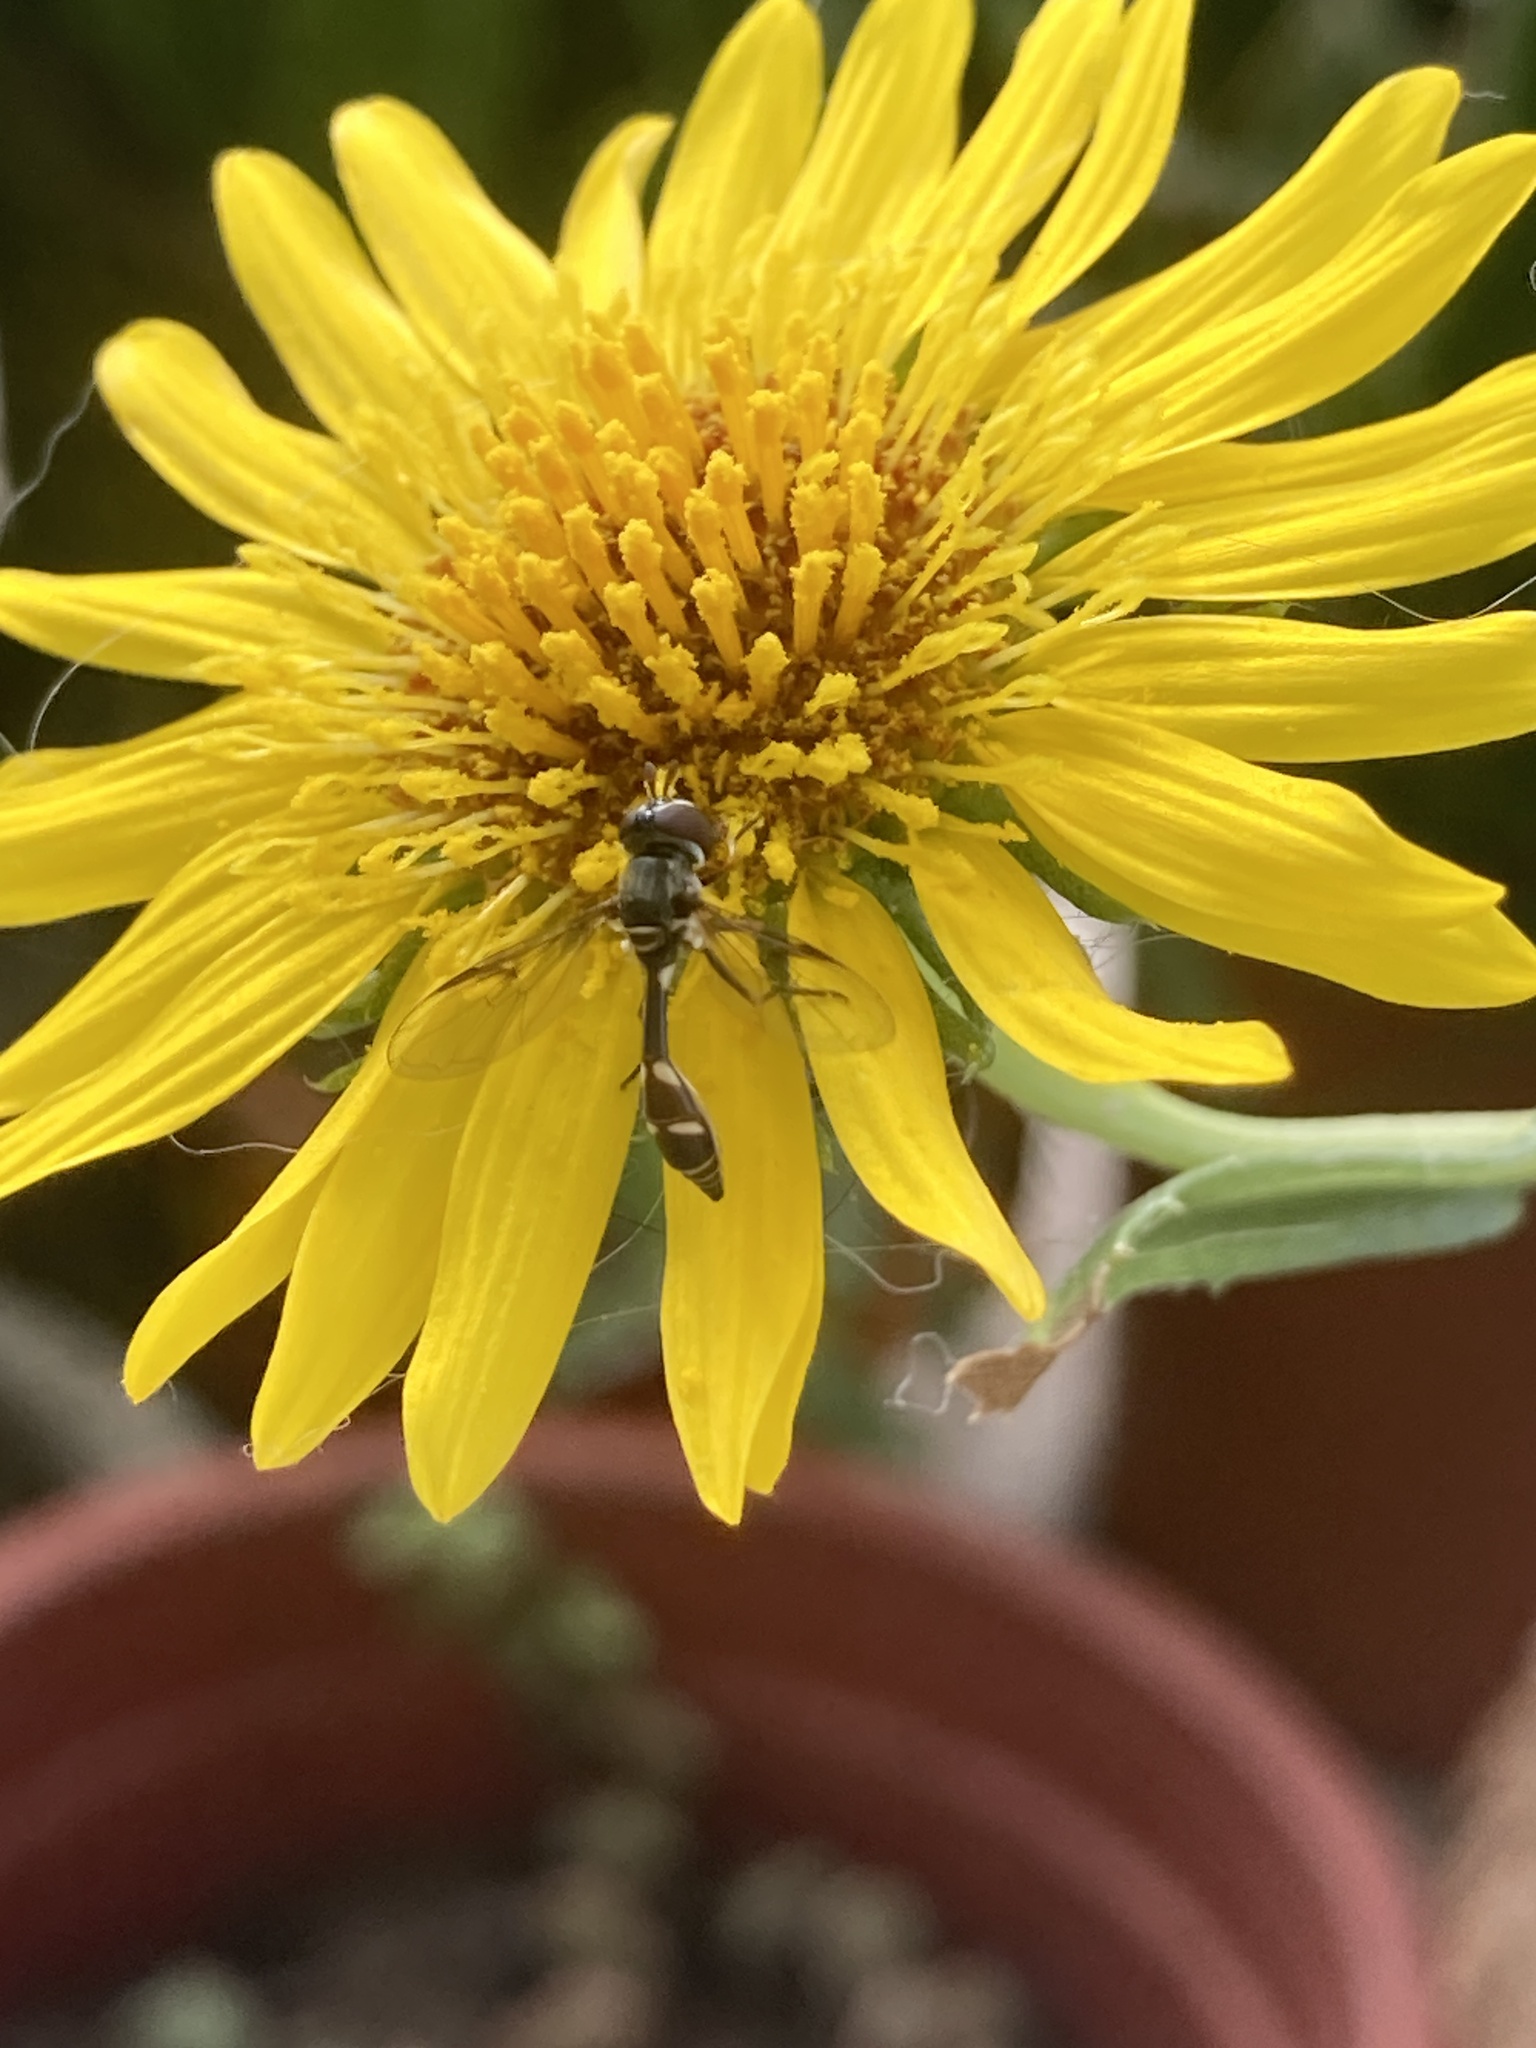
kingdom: Animalia
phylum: Arthropoda
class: Insecta
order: Diptera
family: Syrphidae
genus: Dioprosopa
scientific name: Dioprosopa clavatus
